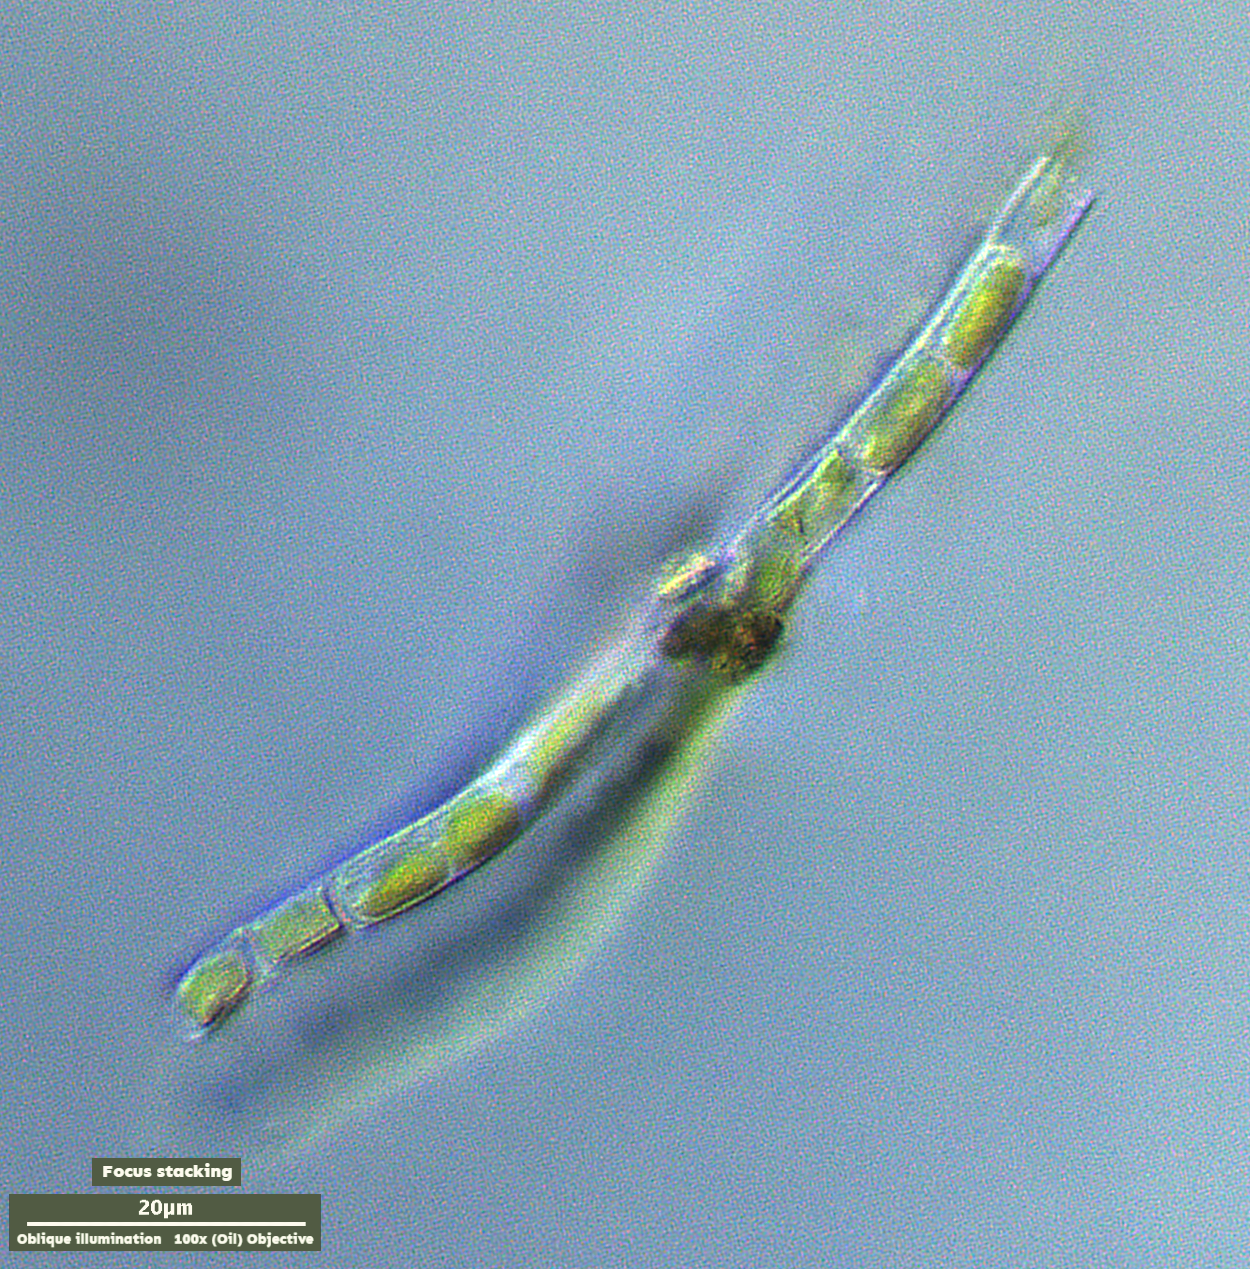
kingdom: Plantae
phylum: Charophyta
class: Klebsormidiophyceae
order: Klebsormidiales
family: Klebsormidiaceae
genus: Klebsormidium
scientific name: Klebsormidium
